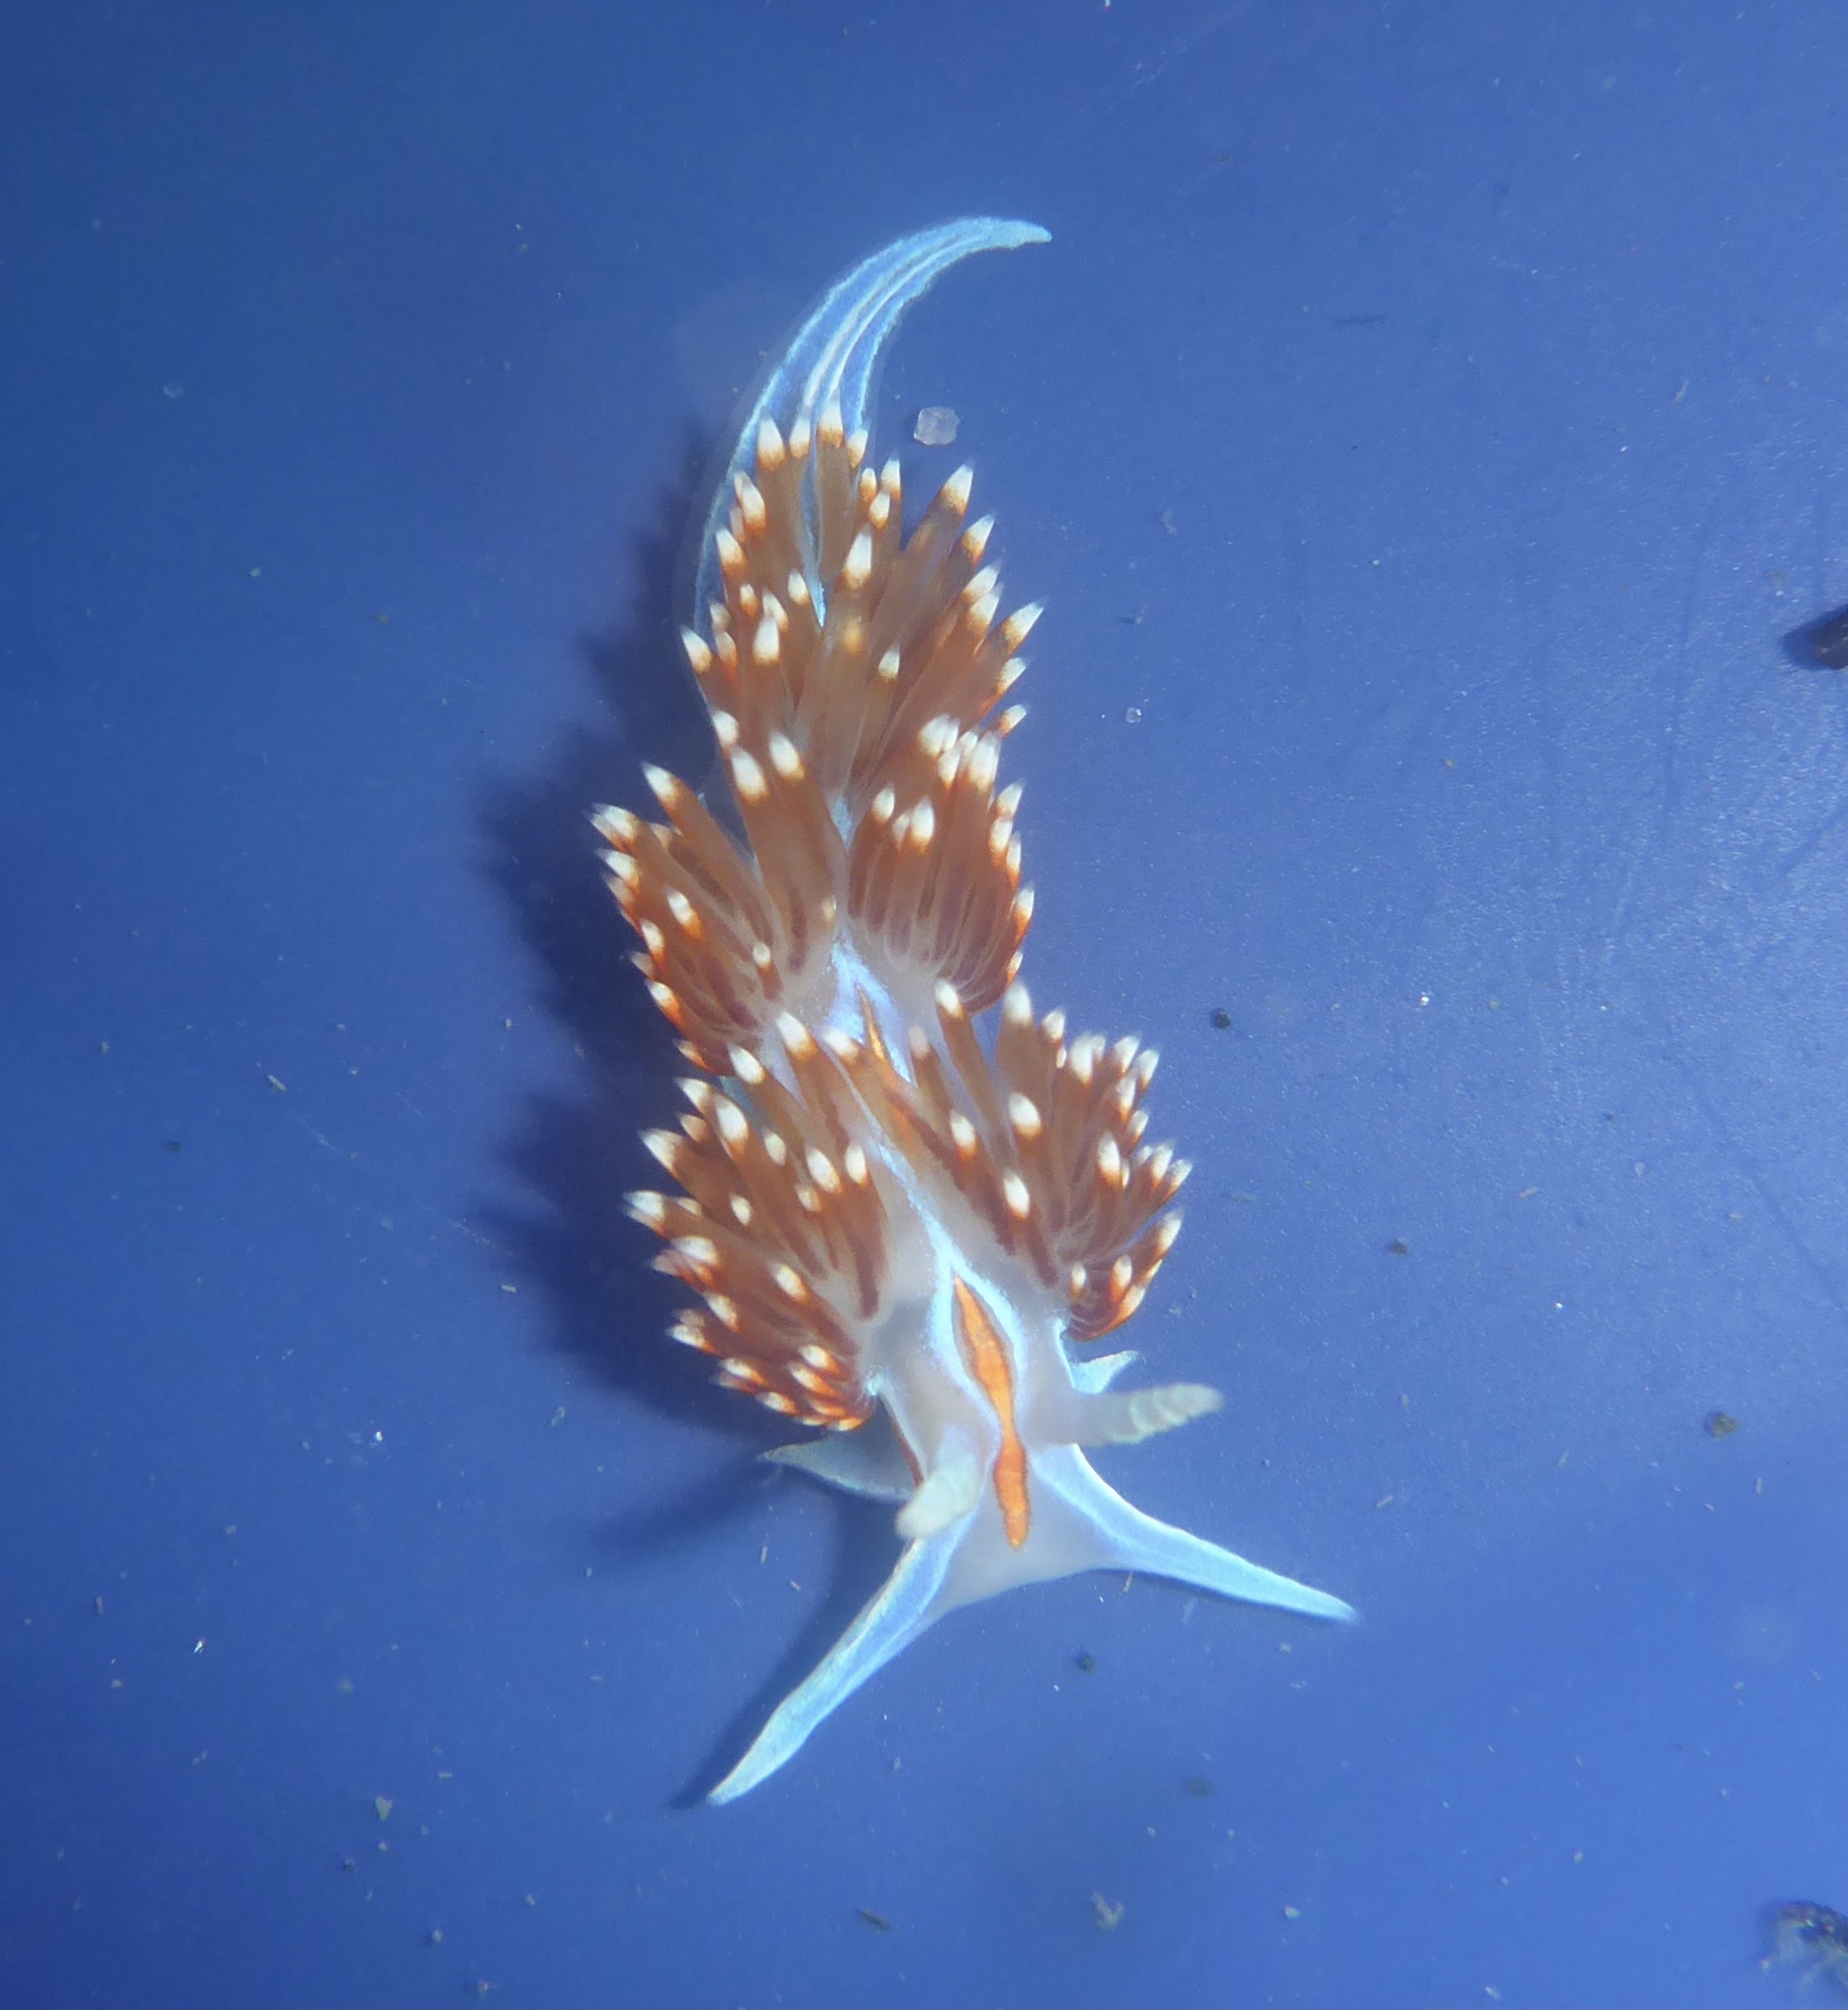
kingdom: Animalia
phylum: Mollusca
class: Gastropoda
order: Nudibranchia
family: Myrrhinidae
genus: Hermissenda
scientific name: Hermissenda opalescens
